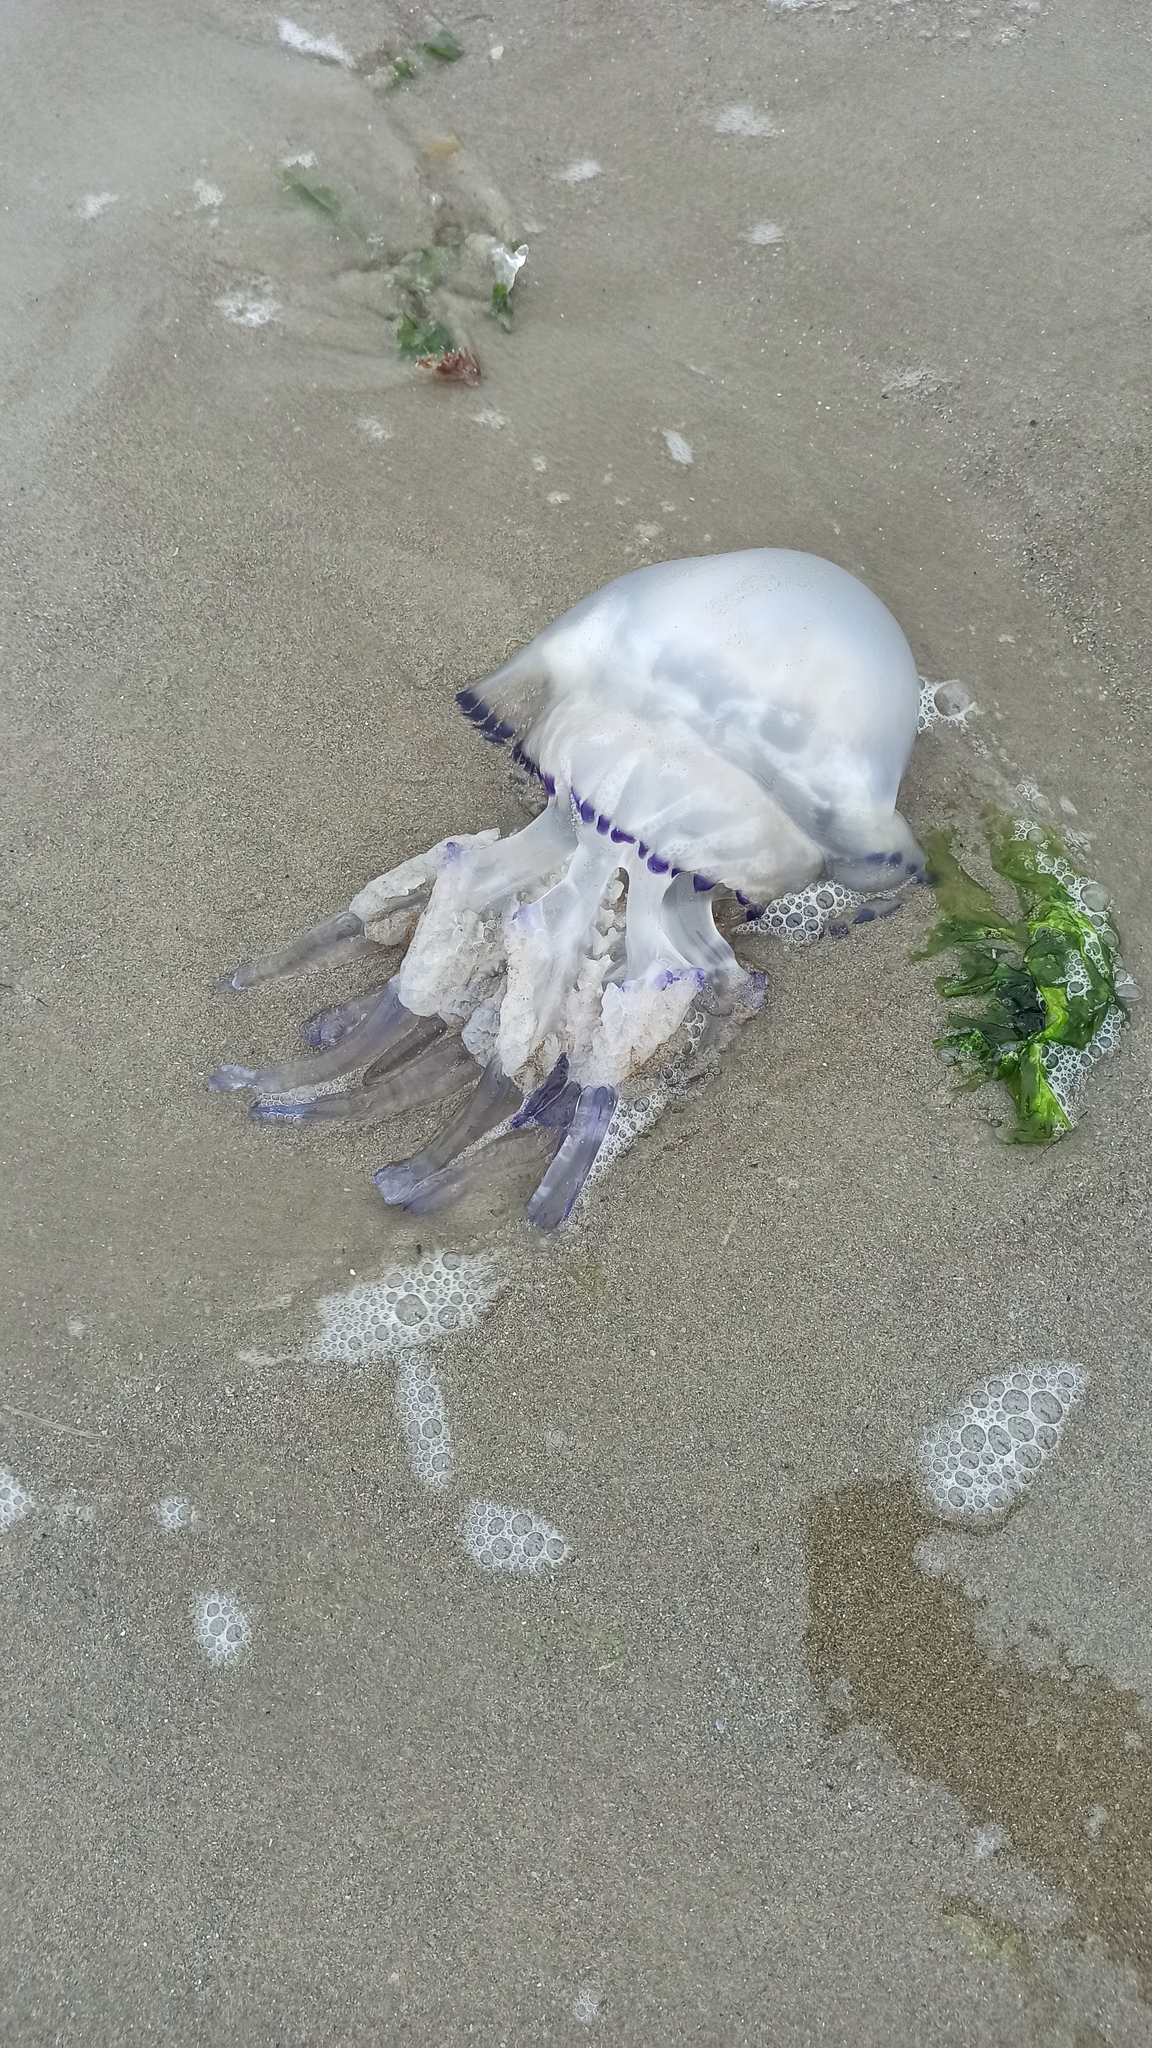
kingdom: Animalia
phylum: Cnidaria
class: Scyphozoa
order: Rhizostomeae
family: Rhizostomatidae
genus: Rhizostoma
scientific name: Rhizostoma pulmo
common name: Barrel jellyfish
